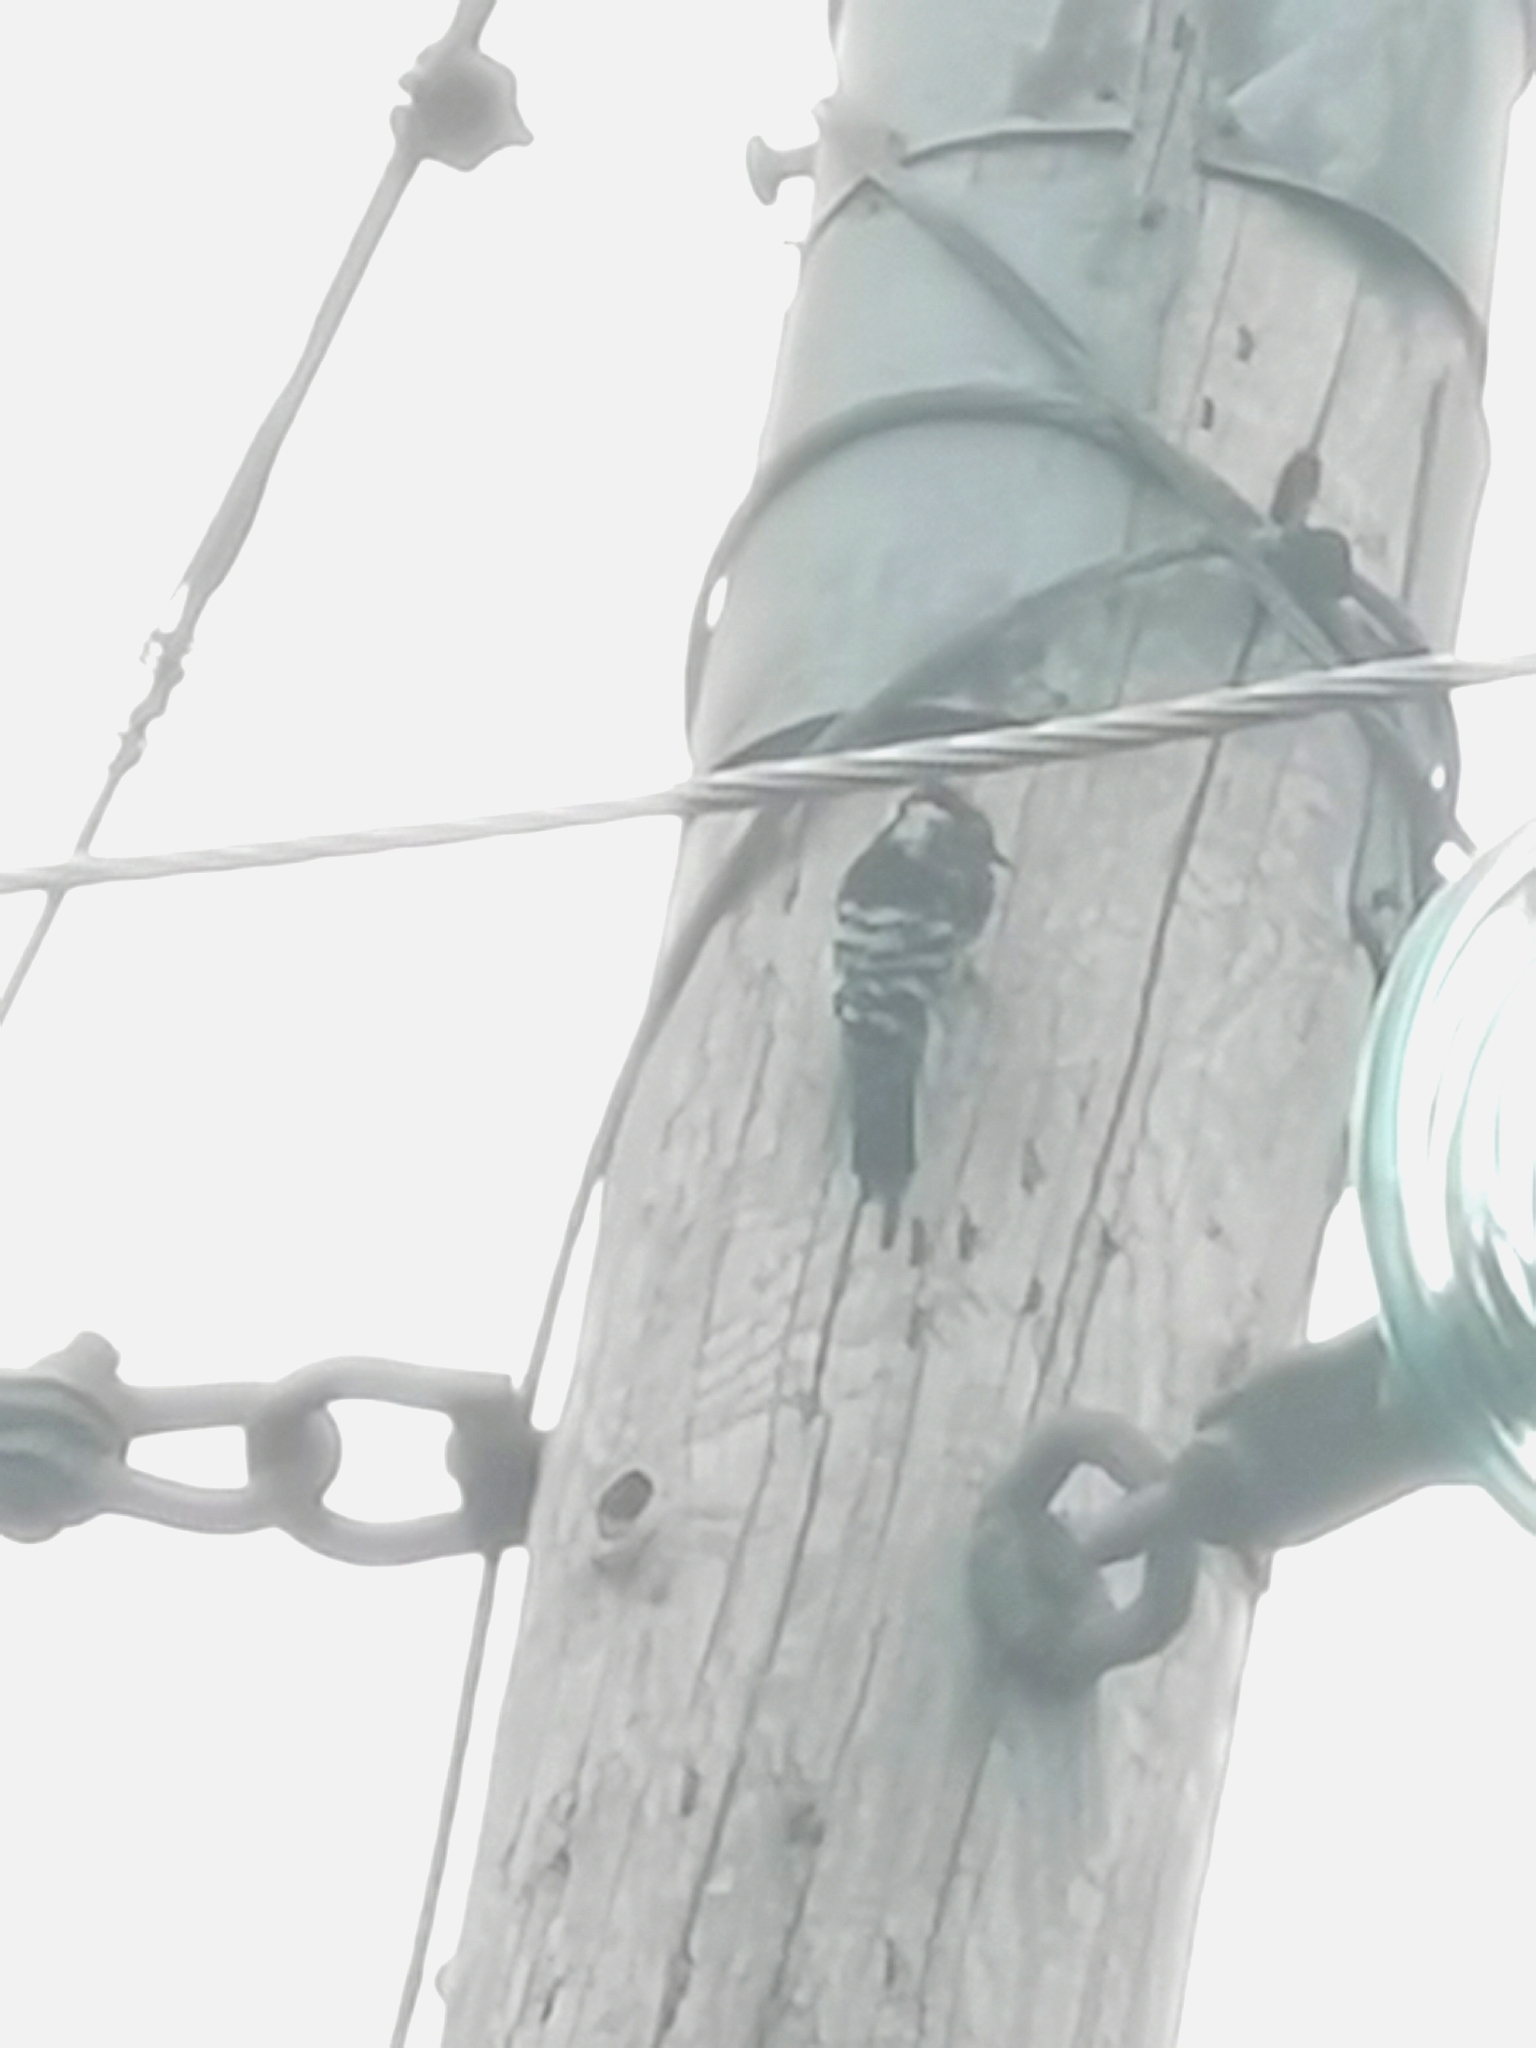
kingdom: Animalia
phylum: Chordata
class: Aves
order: Piciformes
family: Picidae
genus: Dryobates
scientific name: Dryobates minor
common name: Lesser spotted woodpecker
